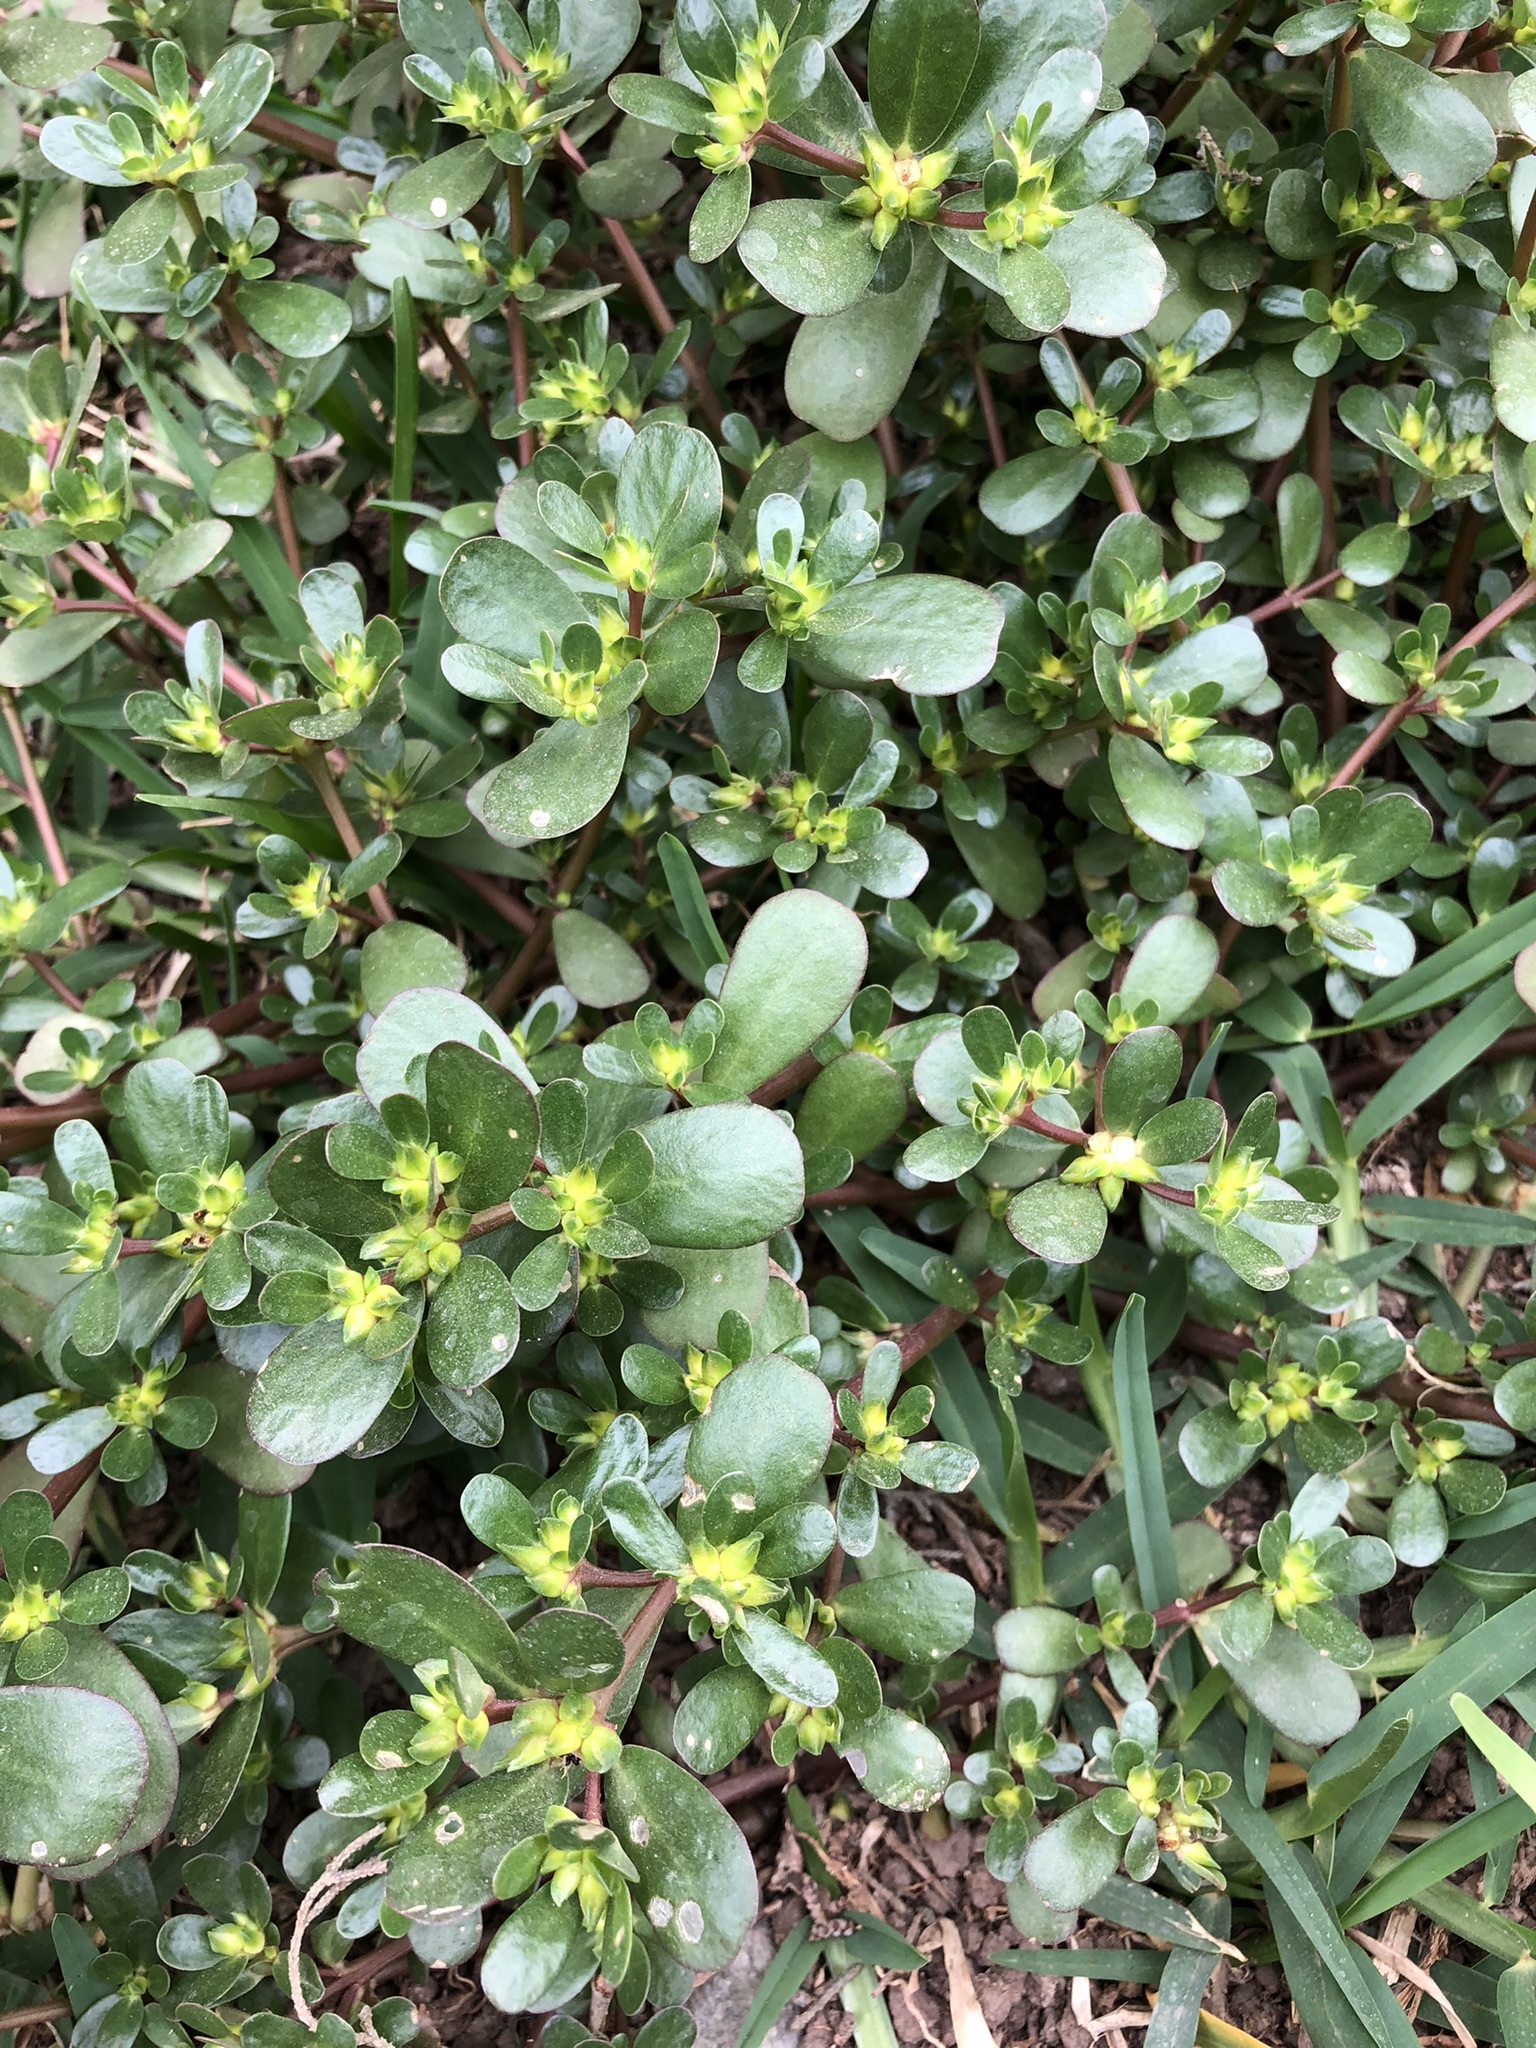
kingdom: Plantae
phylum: Tracheophyta
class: Magnoliopsida
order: Caryophyllales
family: Portulacaceae
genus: Portulaca
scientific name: Portulaca oleracea
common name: Common purslane
